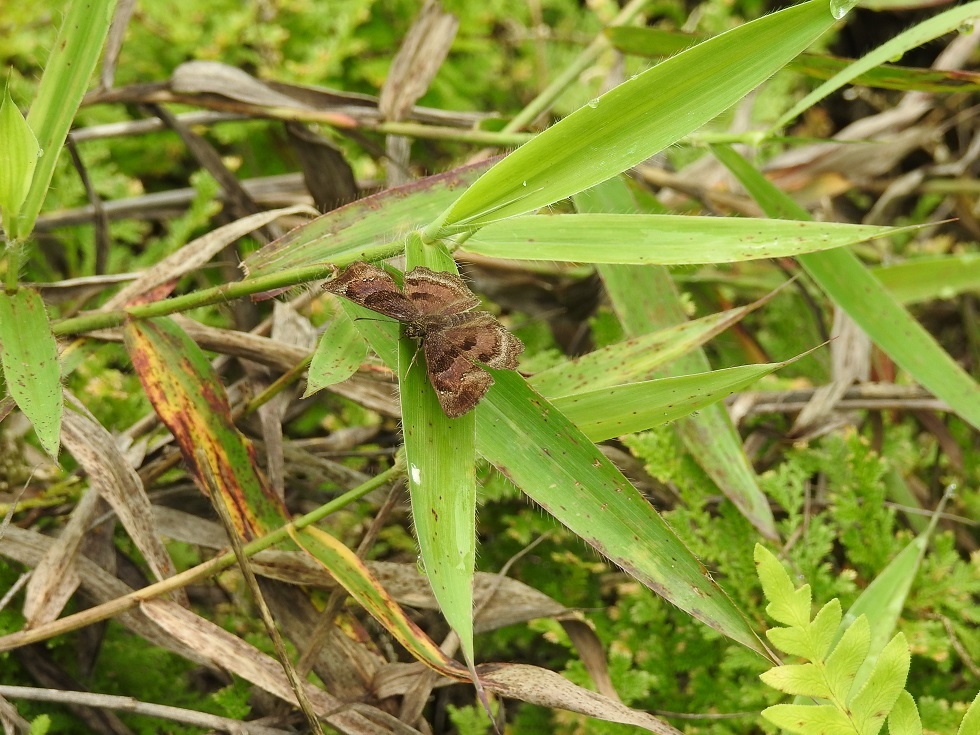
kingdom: Animalia
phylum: Arthropoda
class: Insecta
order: Lepidoptera
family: Hesperiidae
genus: Systaspes
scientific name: Systaspes
